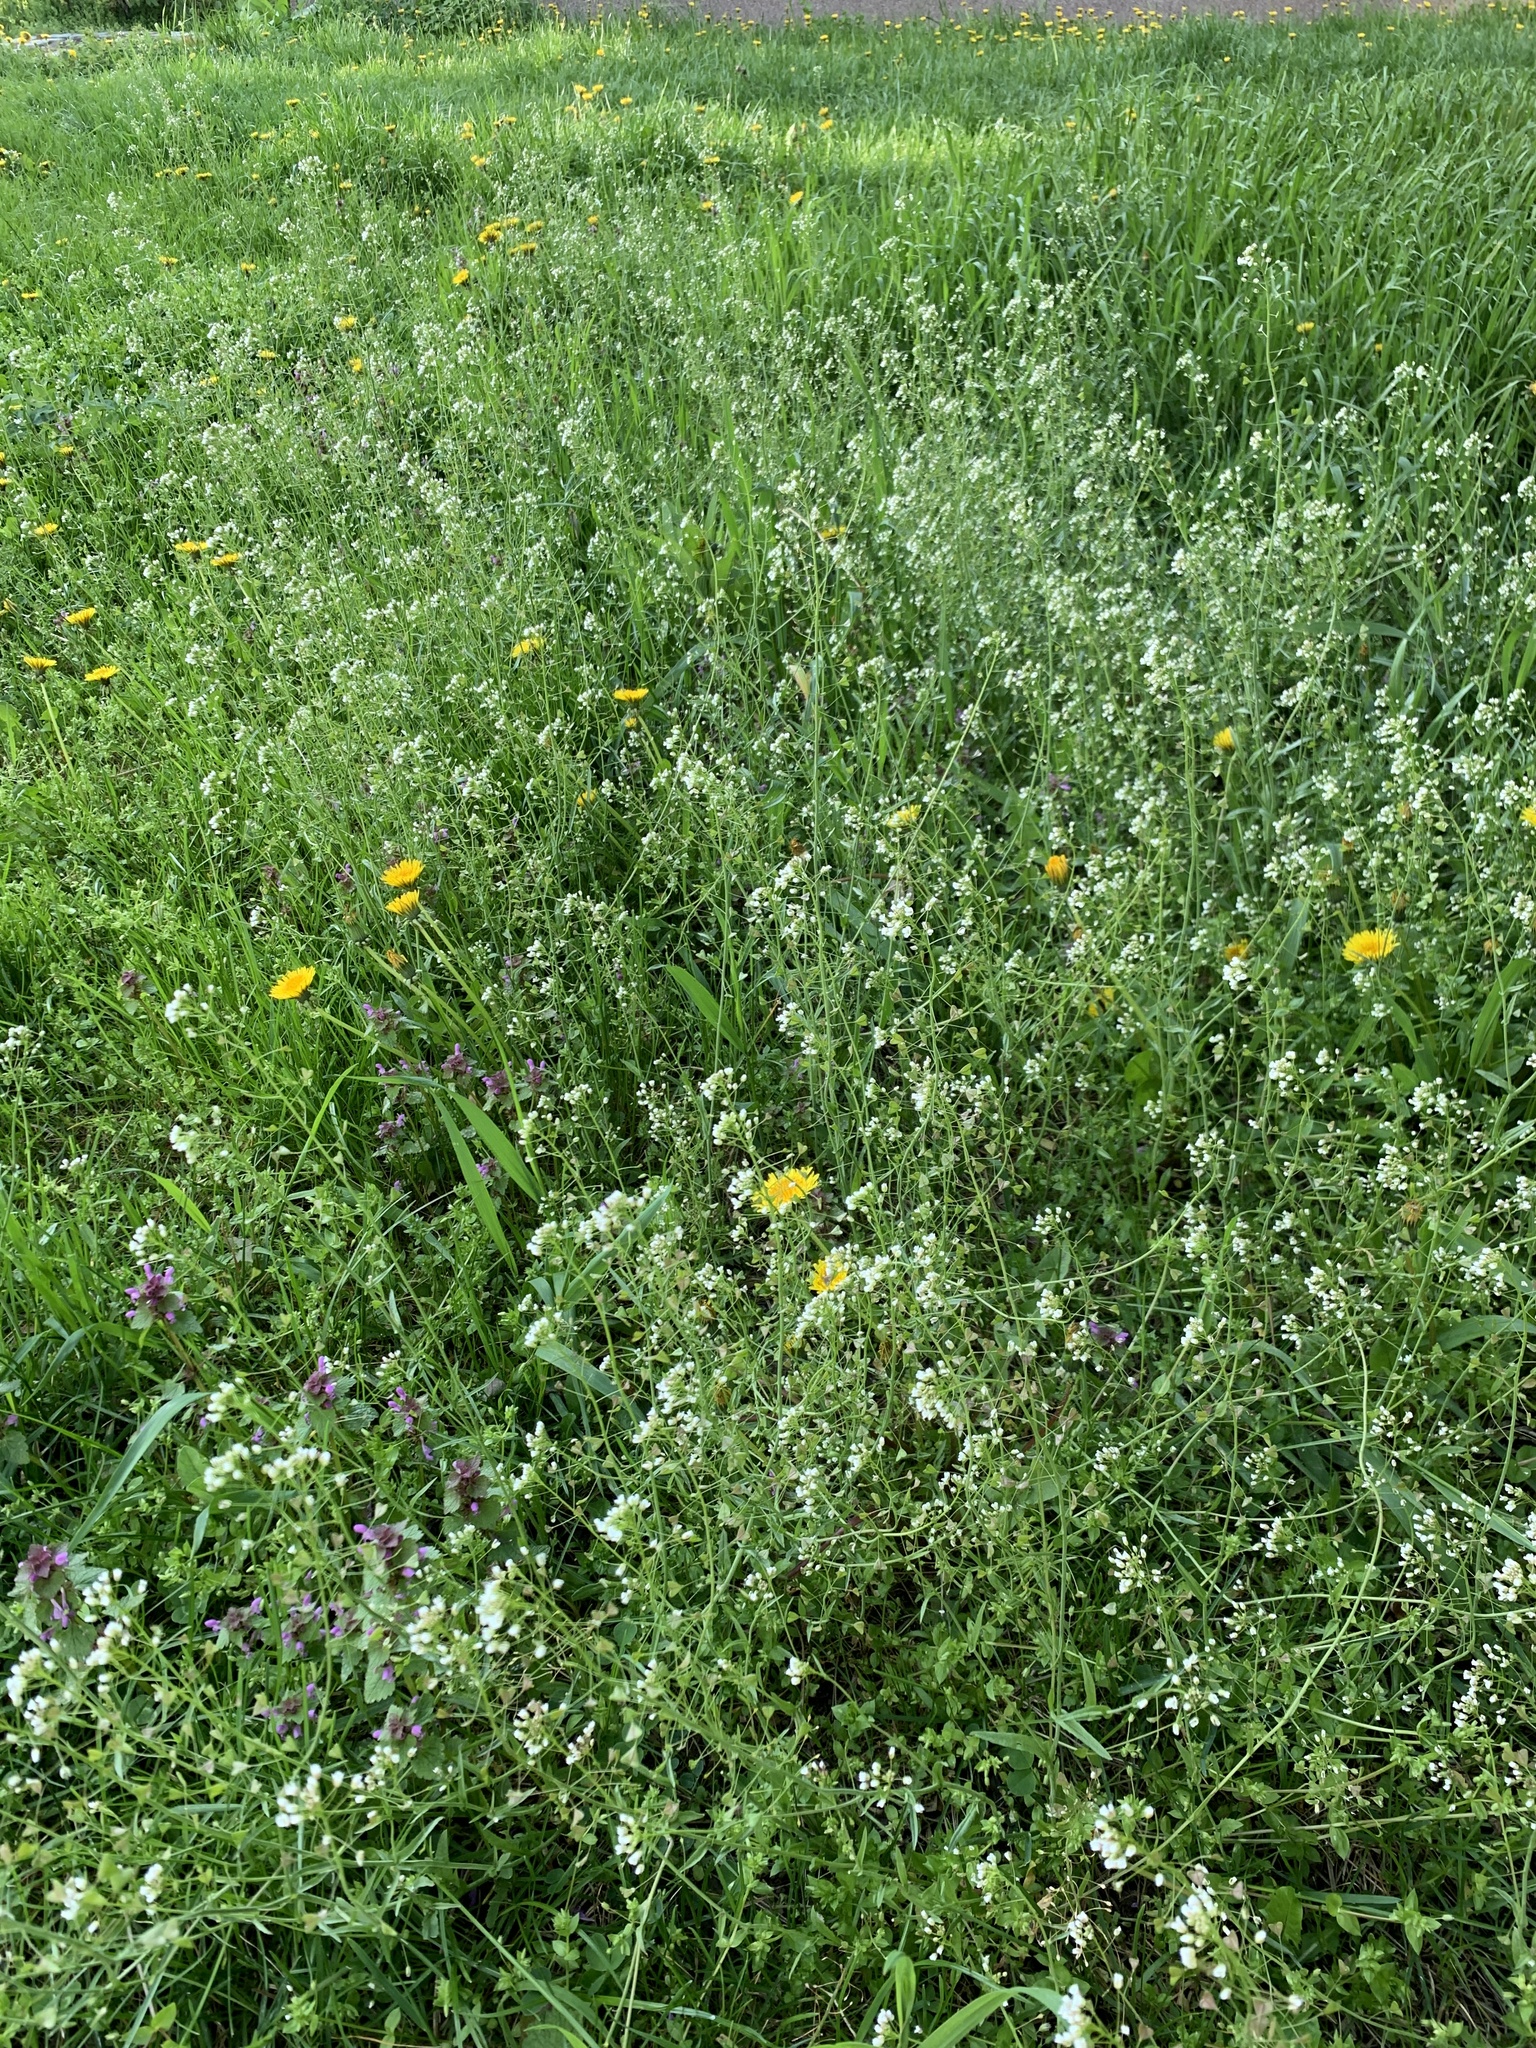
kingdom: Plantae
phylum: Tracheophyta
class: Magnoliopsida
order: Brassicales
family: Brassicaceae
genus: Capsella
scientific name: Capsella bursa-pastoris
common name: Shepherd's purse
